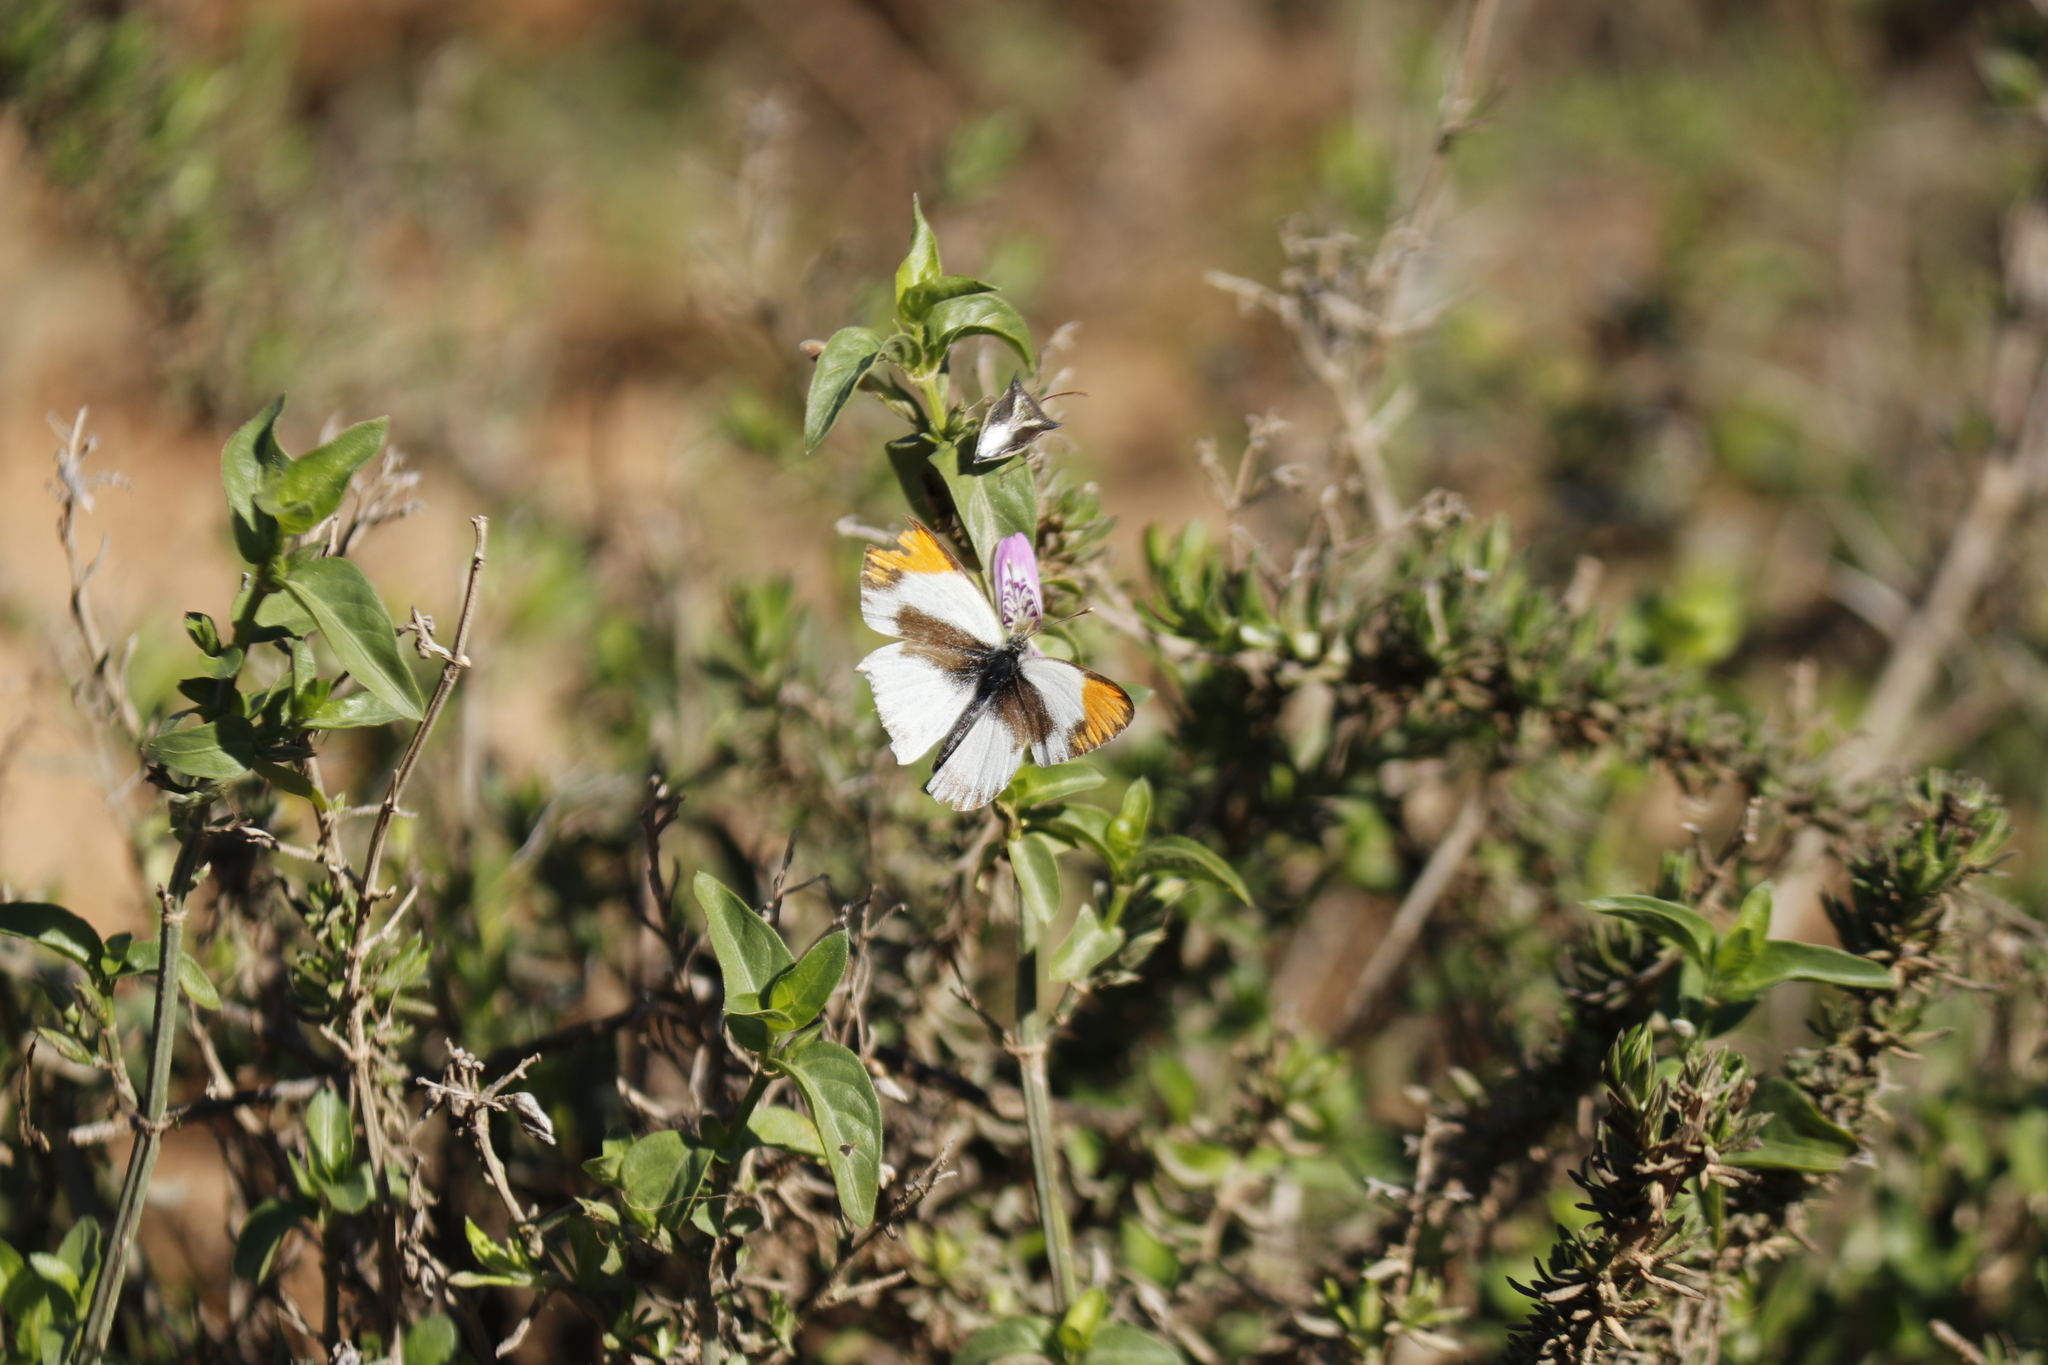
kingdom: Animalia
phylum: Arthropoda
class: Insecta
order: Lepidoptera
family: Pieridae
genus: Colotis
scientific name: Colotis evagore
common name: Desert orange-tip
